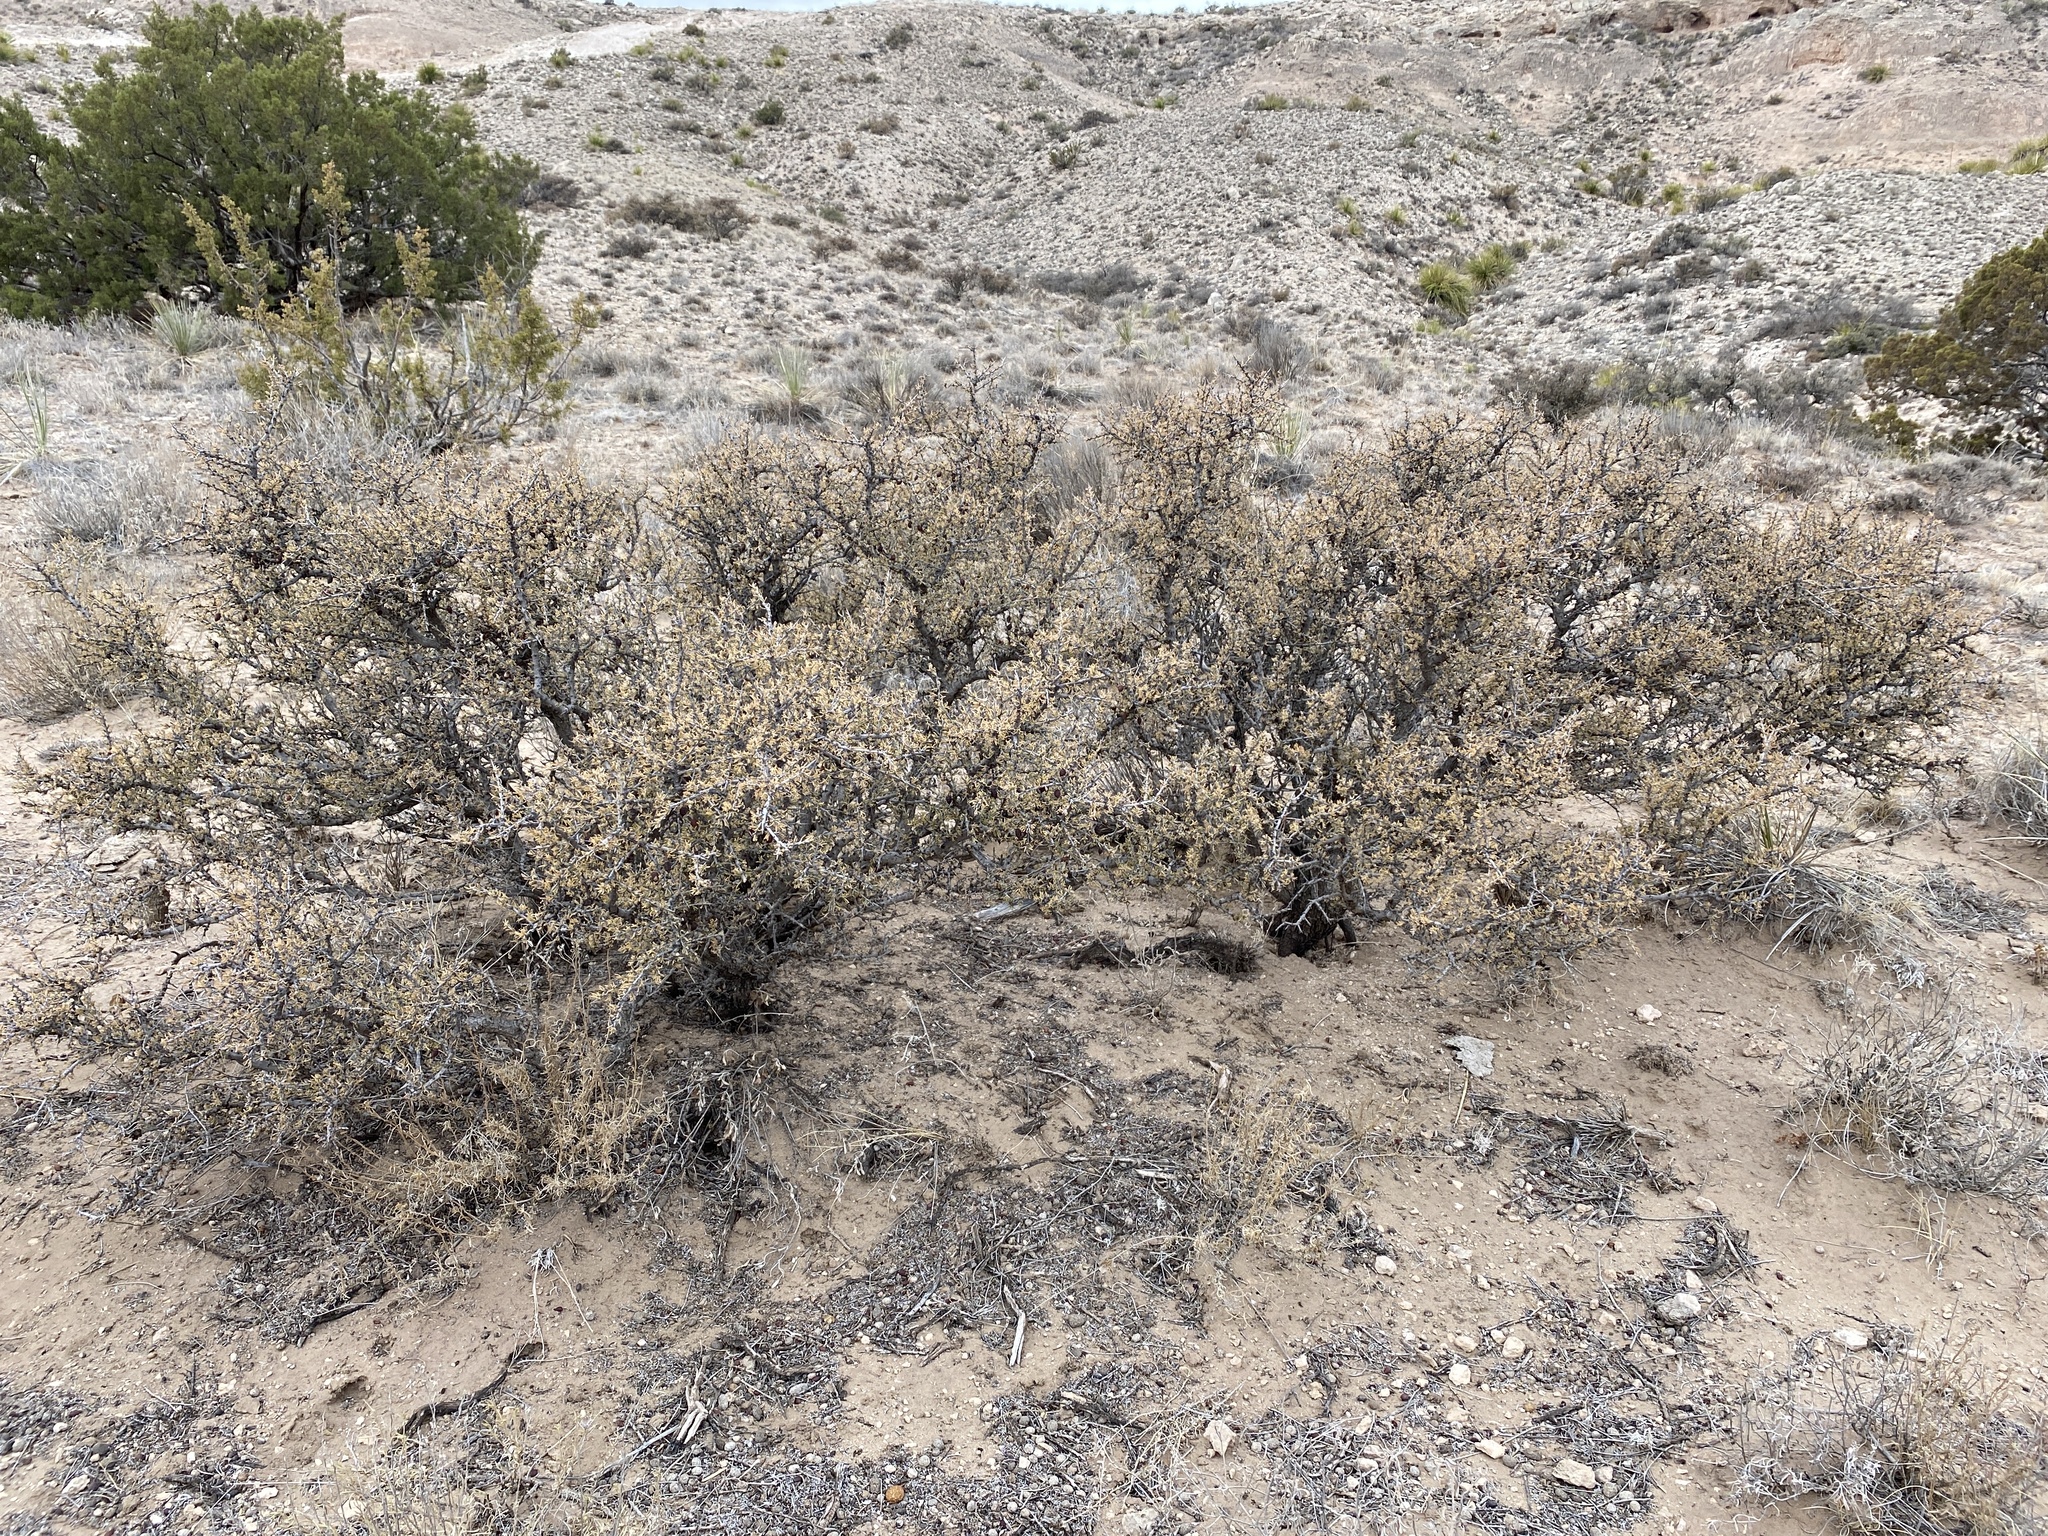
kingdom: Plantae
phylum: Tracheophyta
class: Magnoliopsida
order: Rosales
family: Rhamnaceae
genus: Condalia
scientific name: Condalia ericoides
